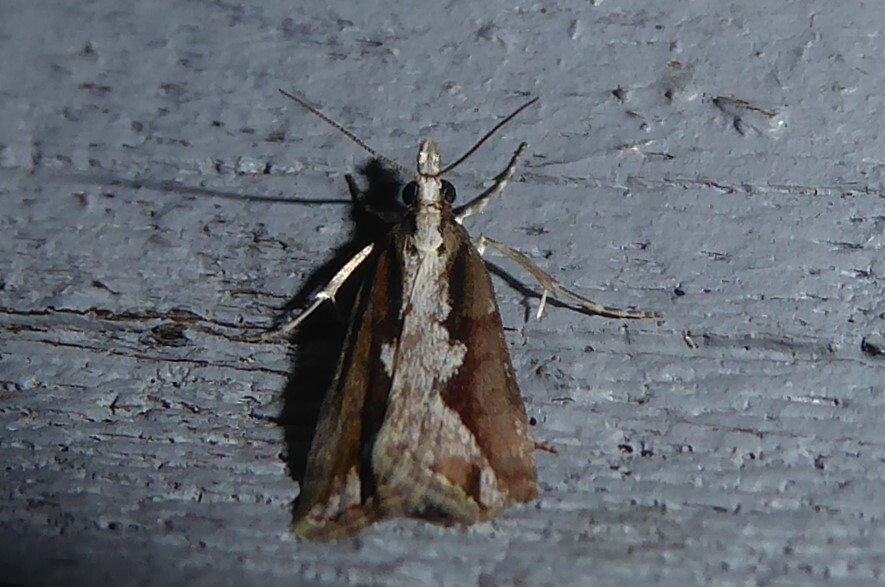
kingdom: Animalia
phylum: Arthropoda
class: Insecta
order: Lepidoptera
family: Crambidae
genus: Eudonia
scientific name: Eudonia steropaea
